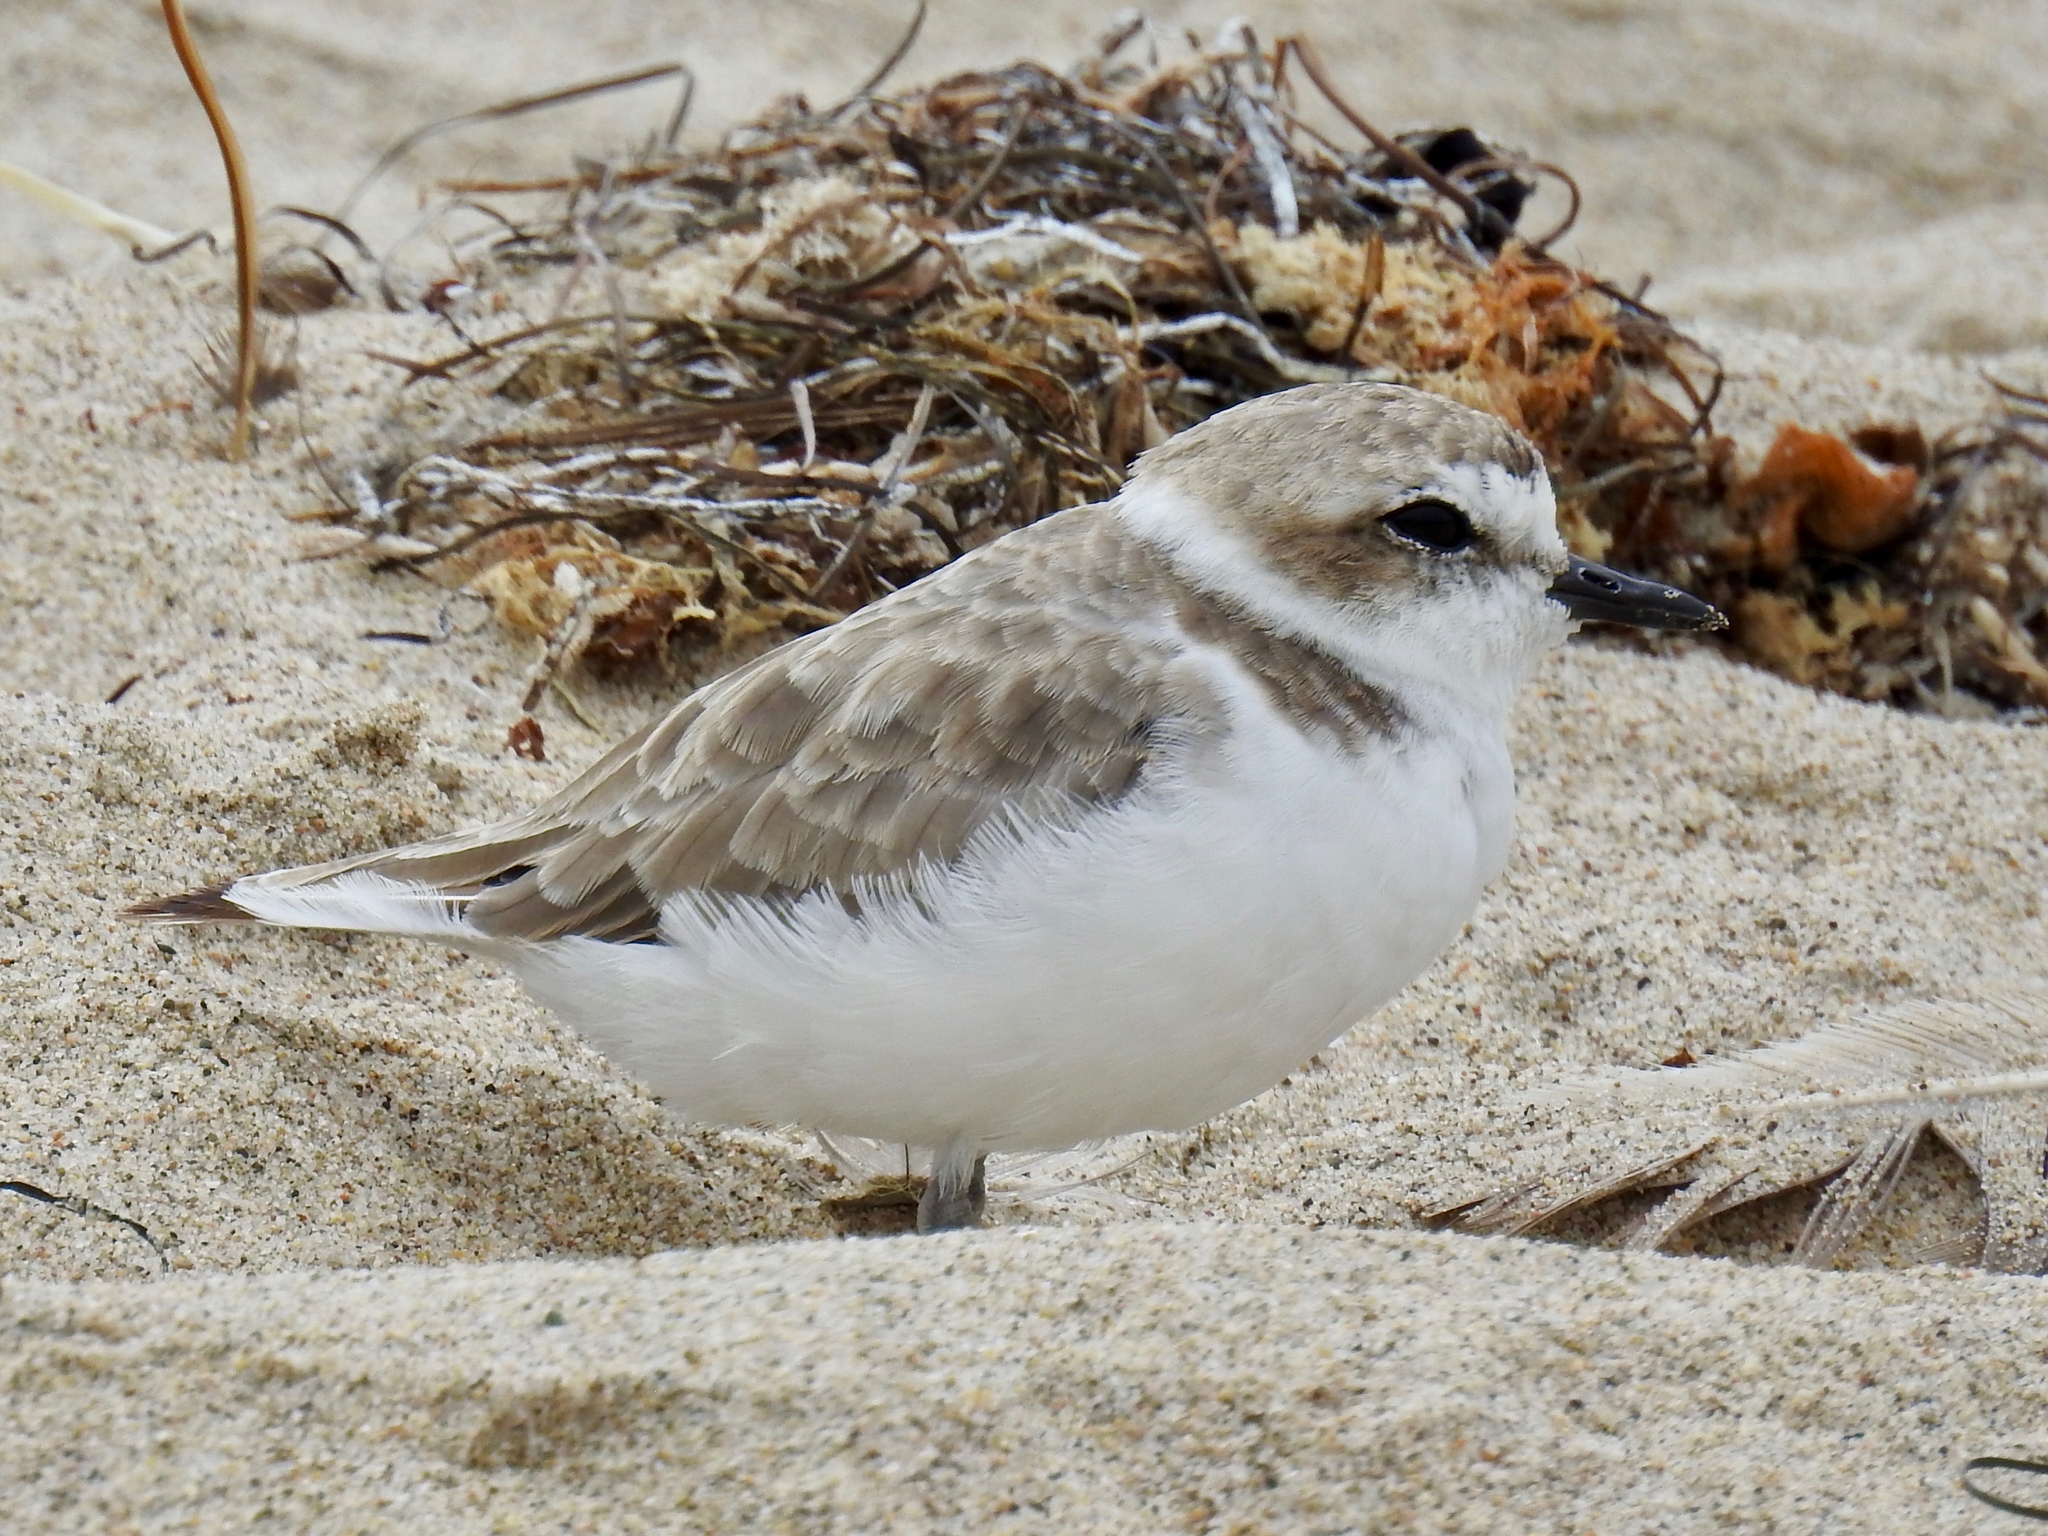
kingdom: Animalia
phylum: Chordata
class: Aves
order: Charadriiformes
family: Charadriidae
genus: Anarhynchus
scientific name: Anarhynchus
